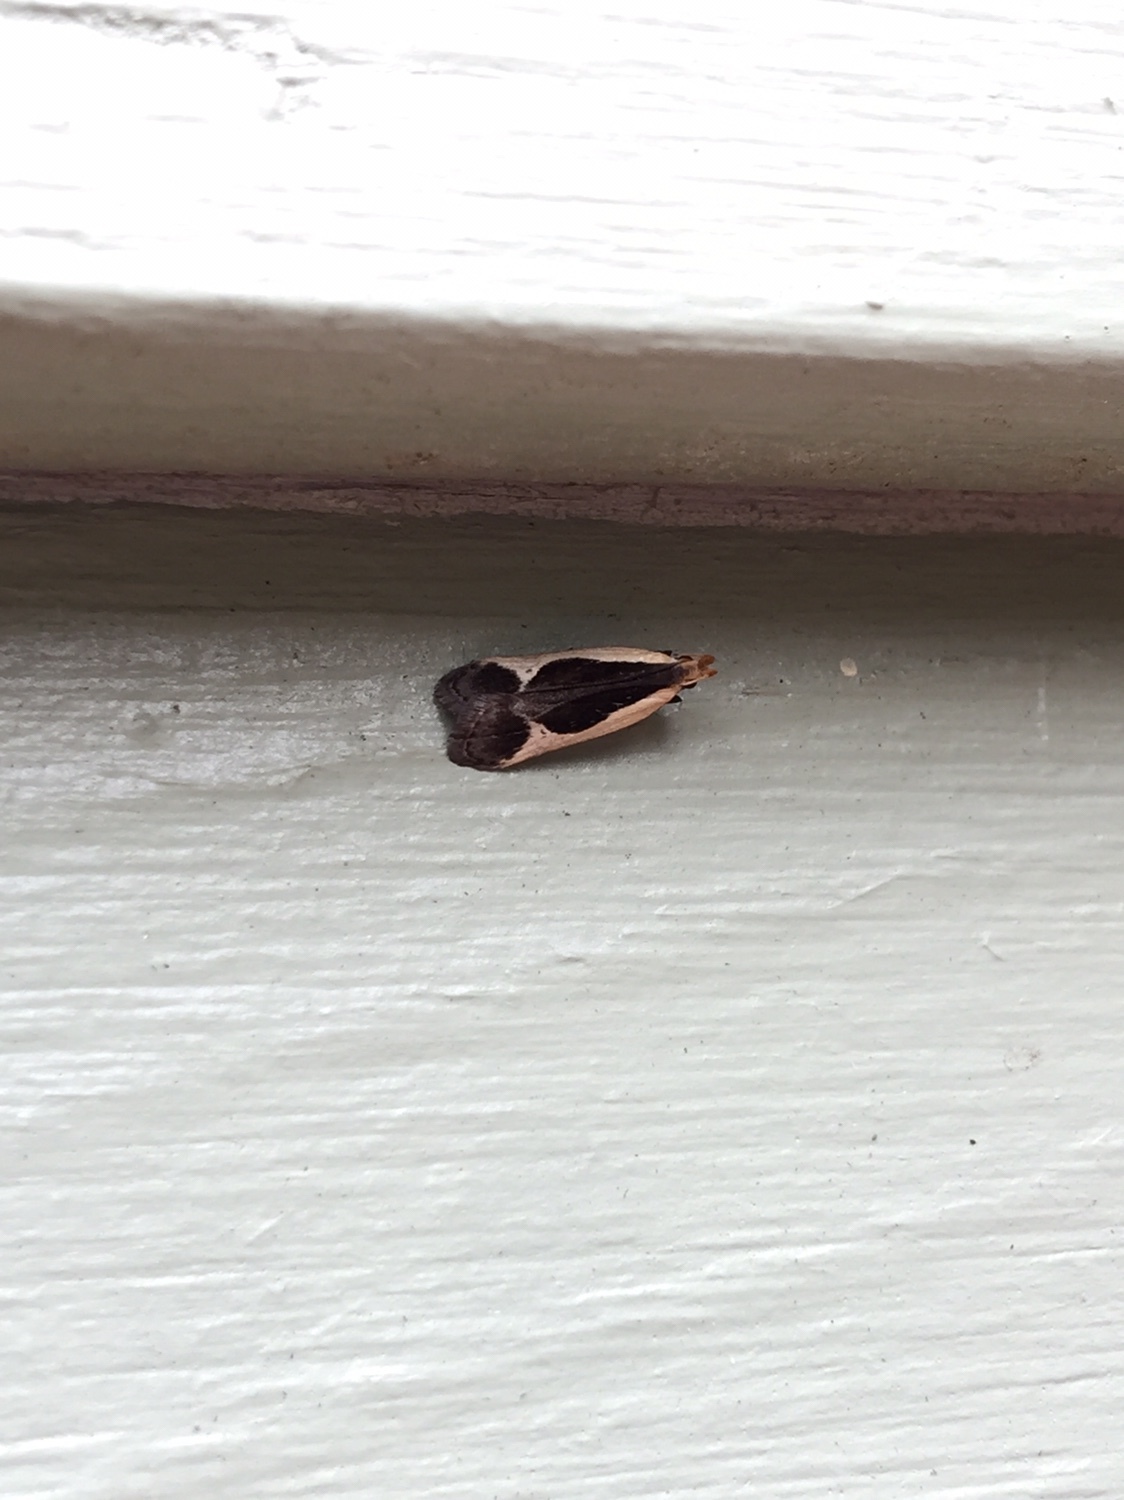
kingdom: Animalia
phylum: Arthropoda
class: Insecta
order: Lepidoptera
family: Gelechiidae
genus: Dichomeris
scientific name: Dichomeris flavocostella
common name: Cream-edged dichomeris moth
